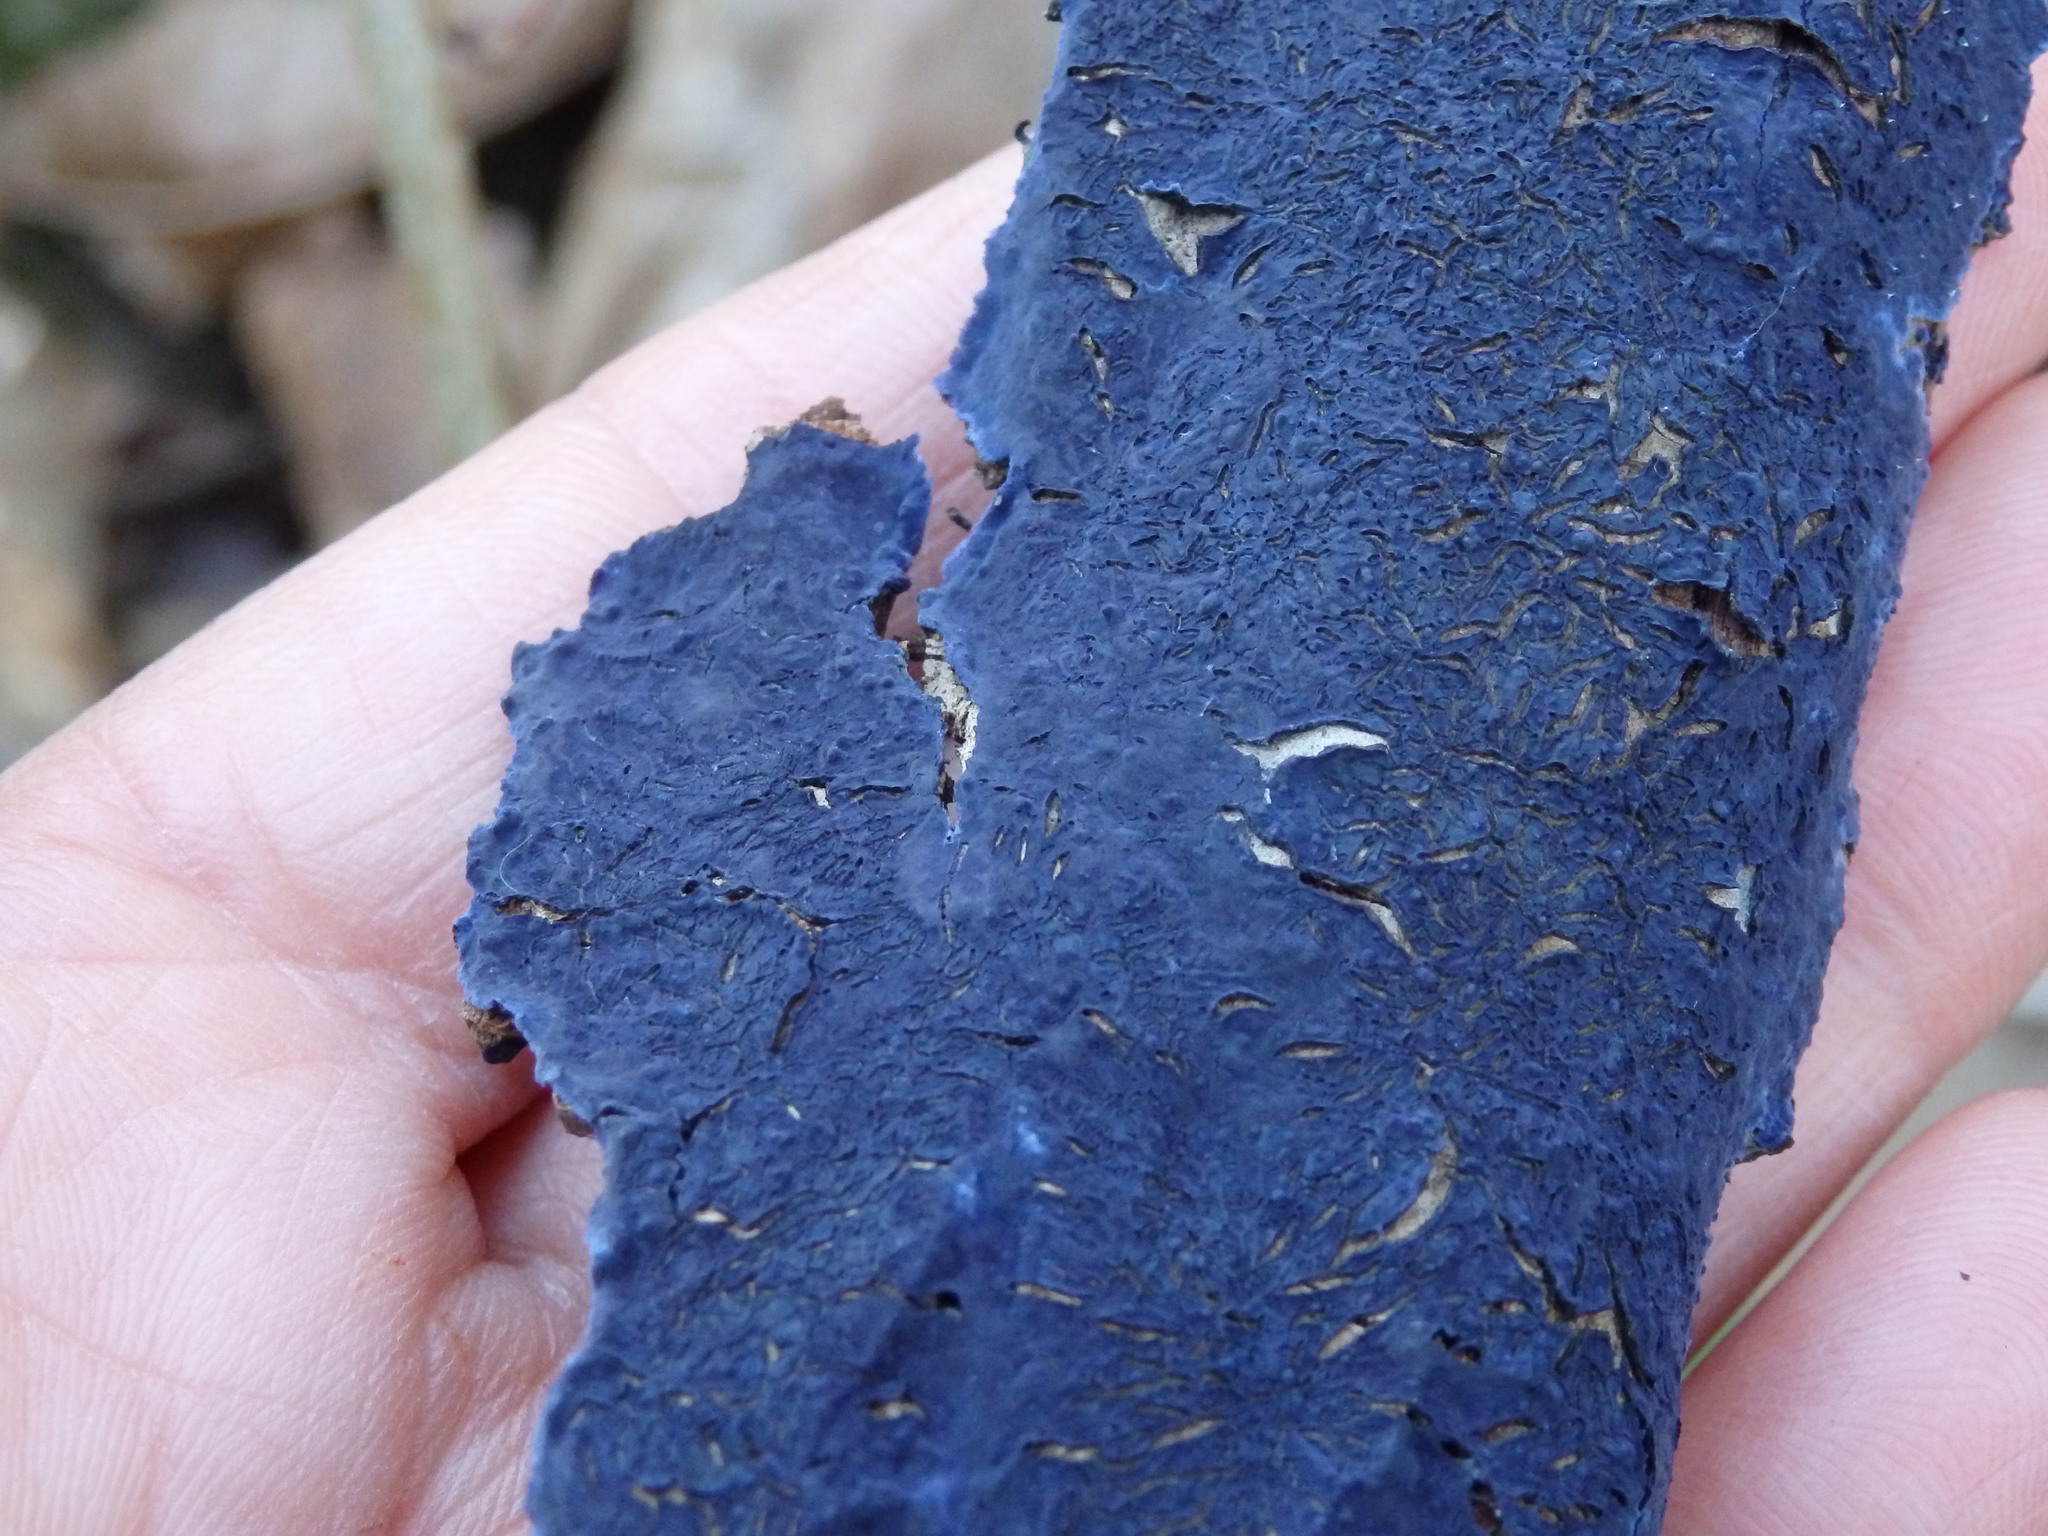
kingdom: Fungi
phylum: Basidiomycota
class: Agaricomycetes
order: Polyporales
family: Phanerochaetaceae
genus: Terana
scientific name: Terana coerulea
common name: Cobalt crust
